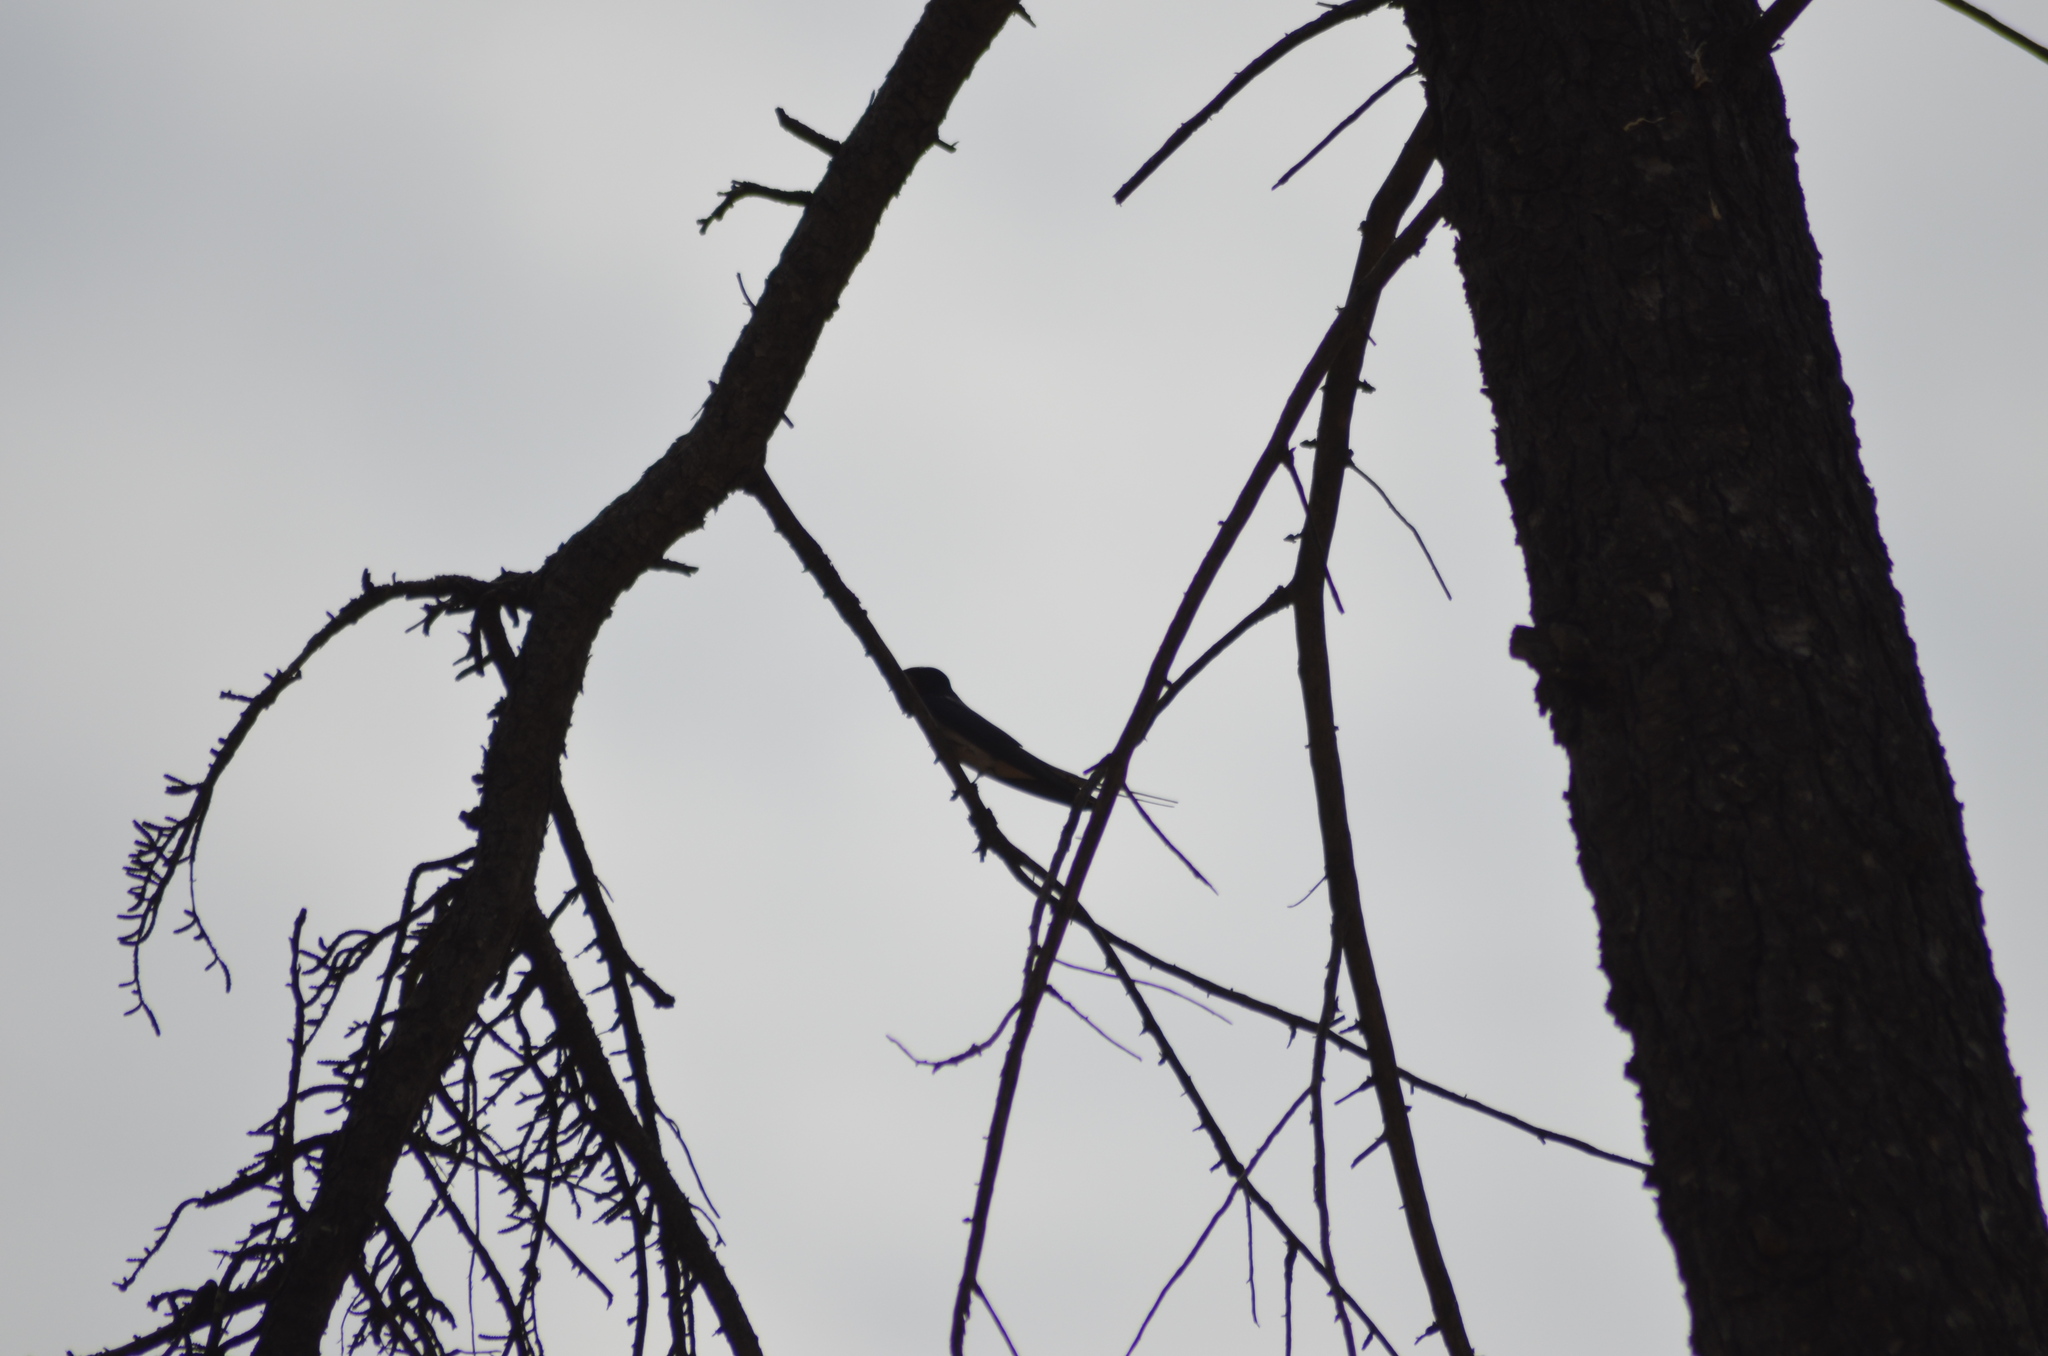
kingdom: Animalia
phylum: Chordata
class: Aves
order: Passeriformes
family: Hirundinidae
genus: Hirundo
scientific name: Hirundo rustica
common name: Barn swallow
